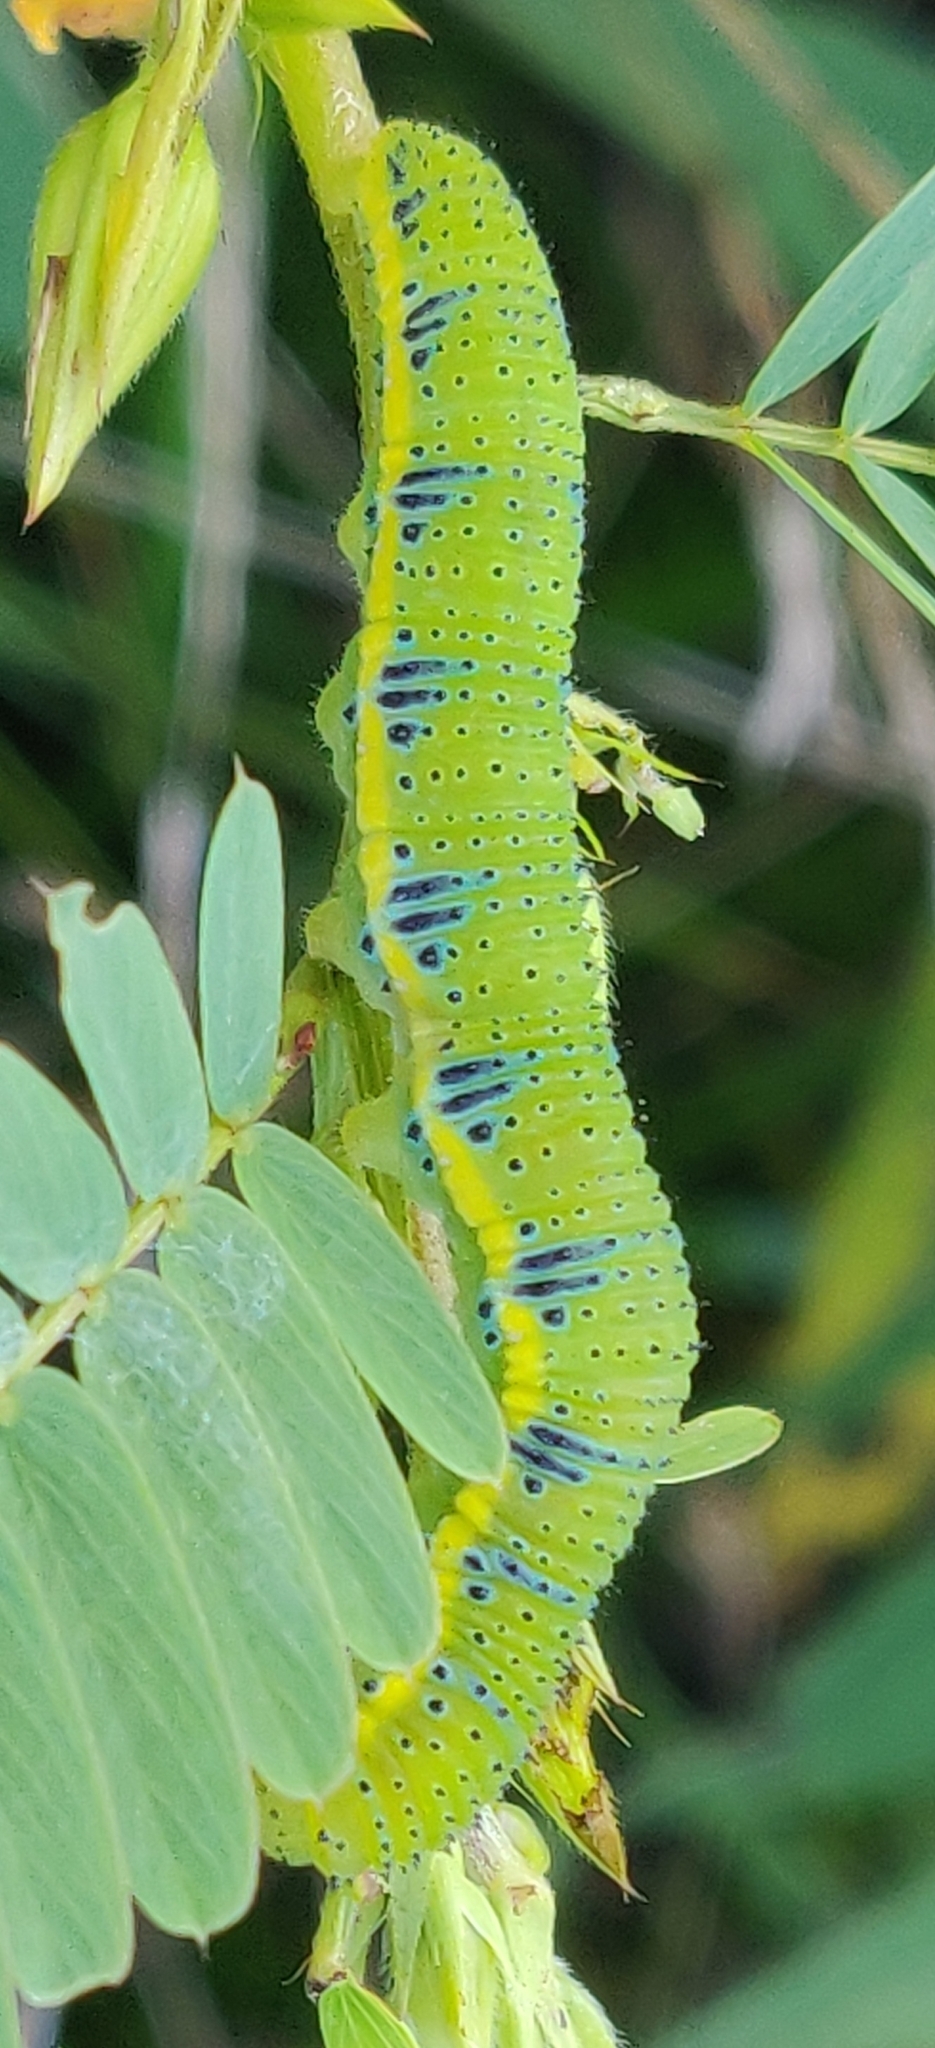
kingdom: Animalia
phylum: Arthropoda
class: Insecta
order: Lepidoptera
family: Pieridae
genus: Phoebis
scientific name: Phoebis sennae
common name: Cloudless sulphur
